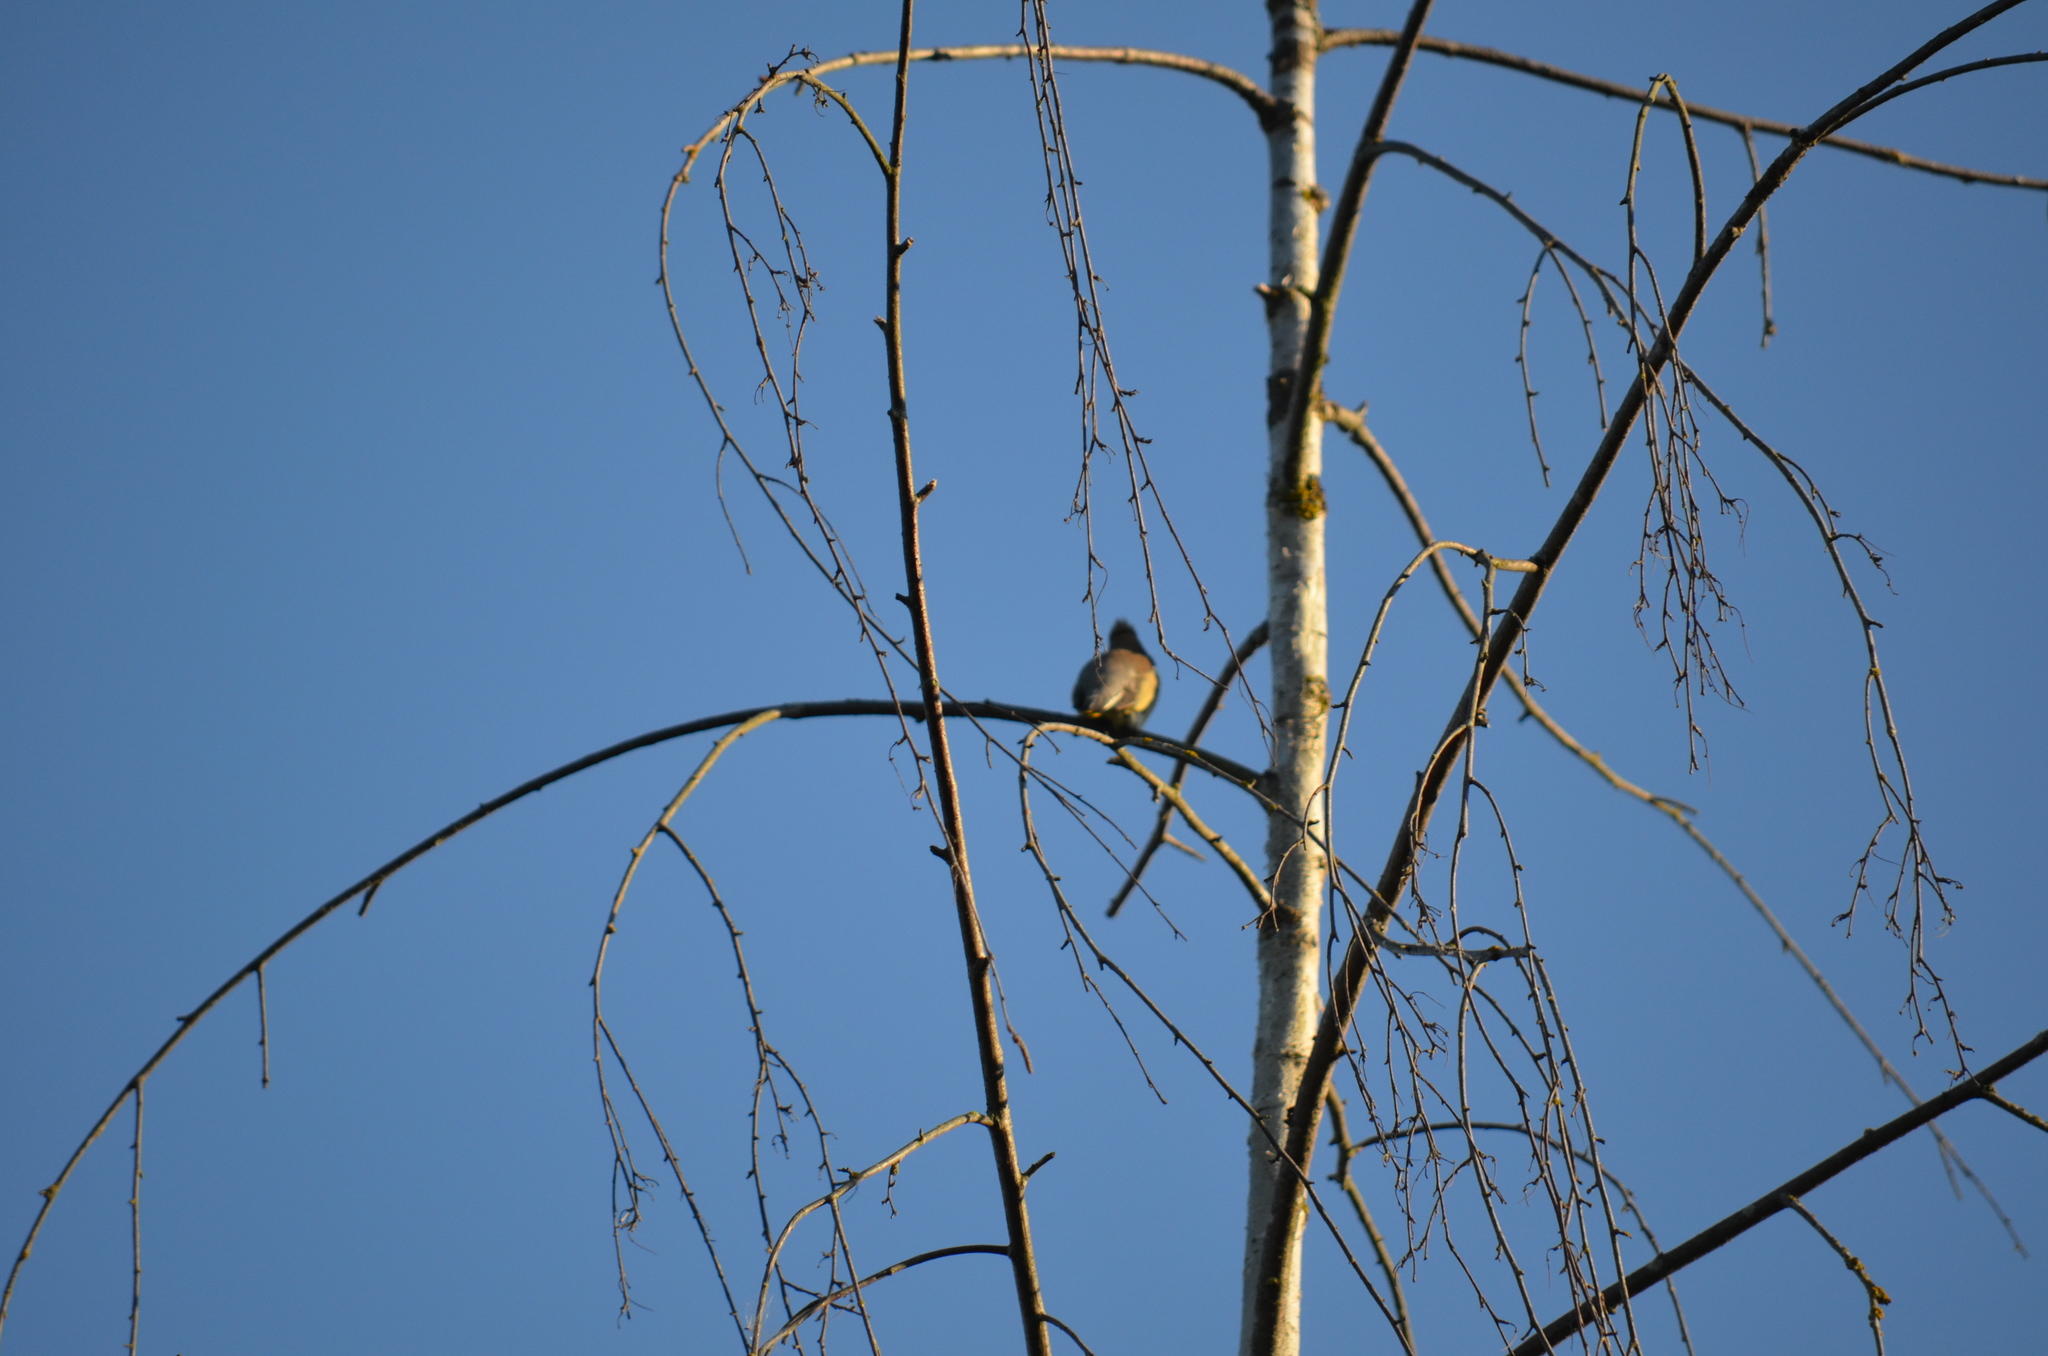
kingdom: Animalia
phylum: Chordata
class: Aves
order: Passeriformes
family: Bombycillidae
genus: Bombycilla
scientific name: Bombycilla cedrorum
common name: Cedar waxwing
